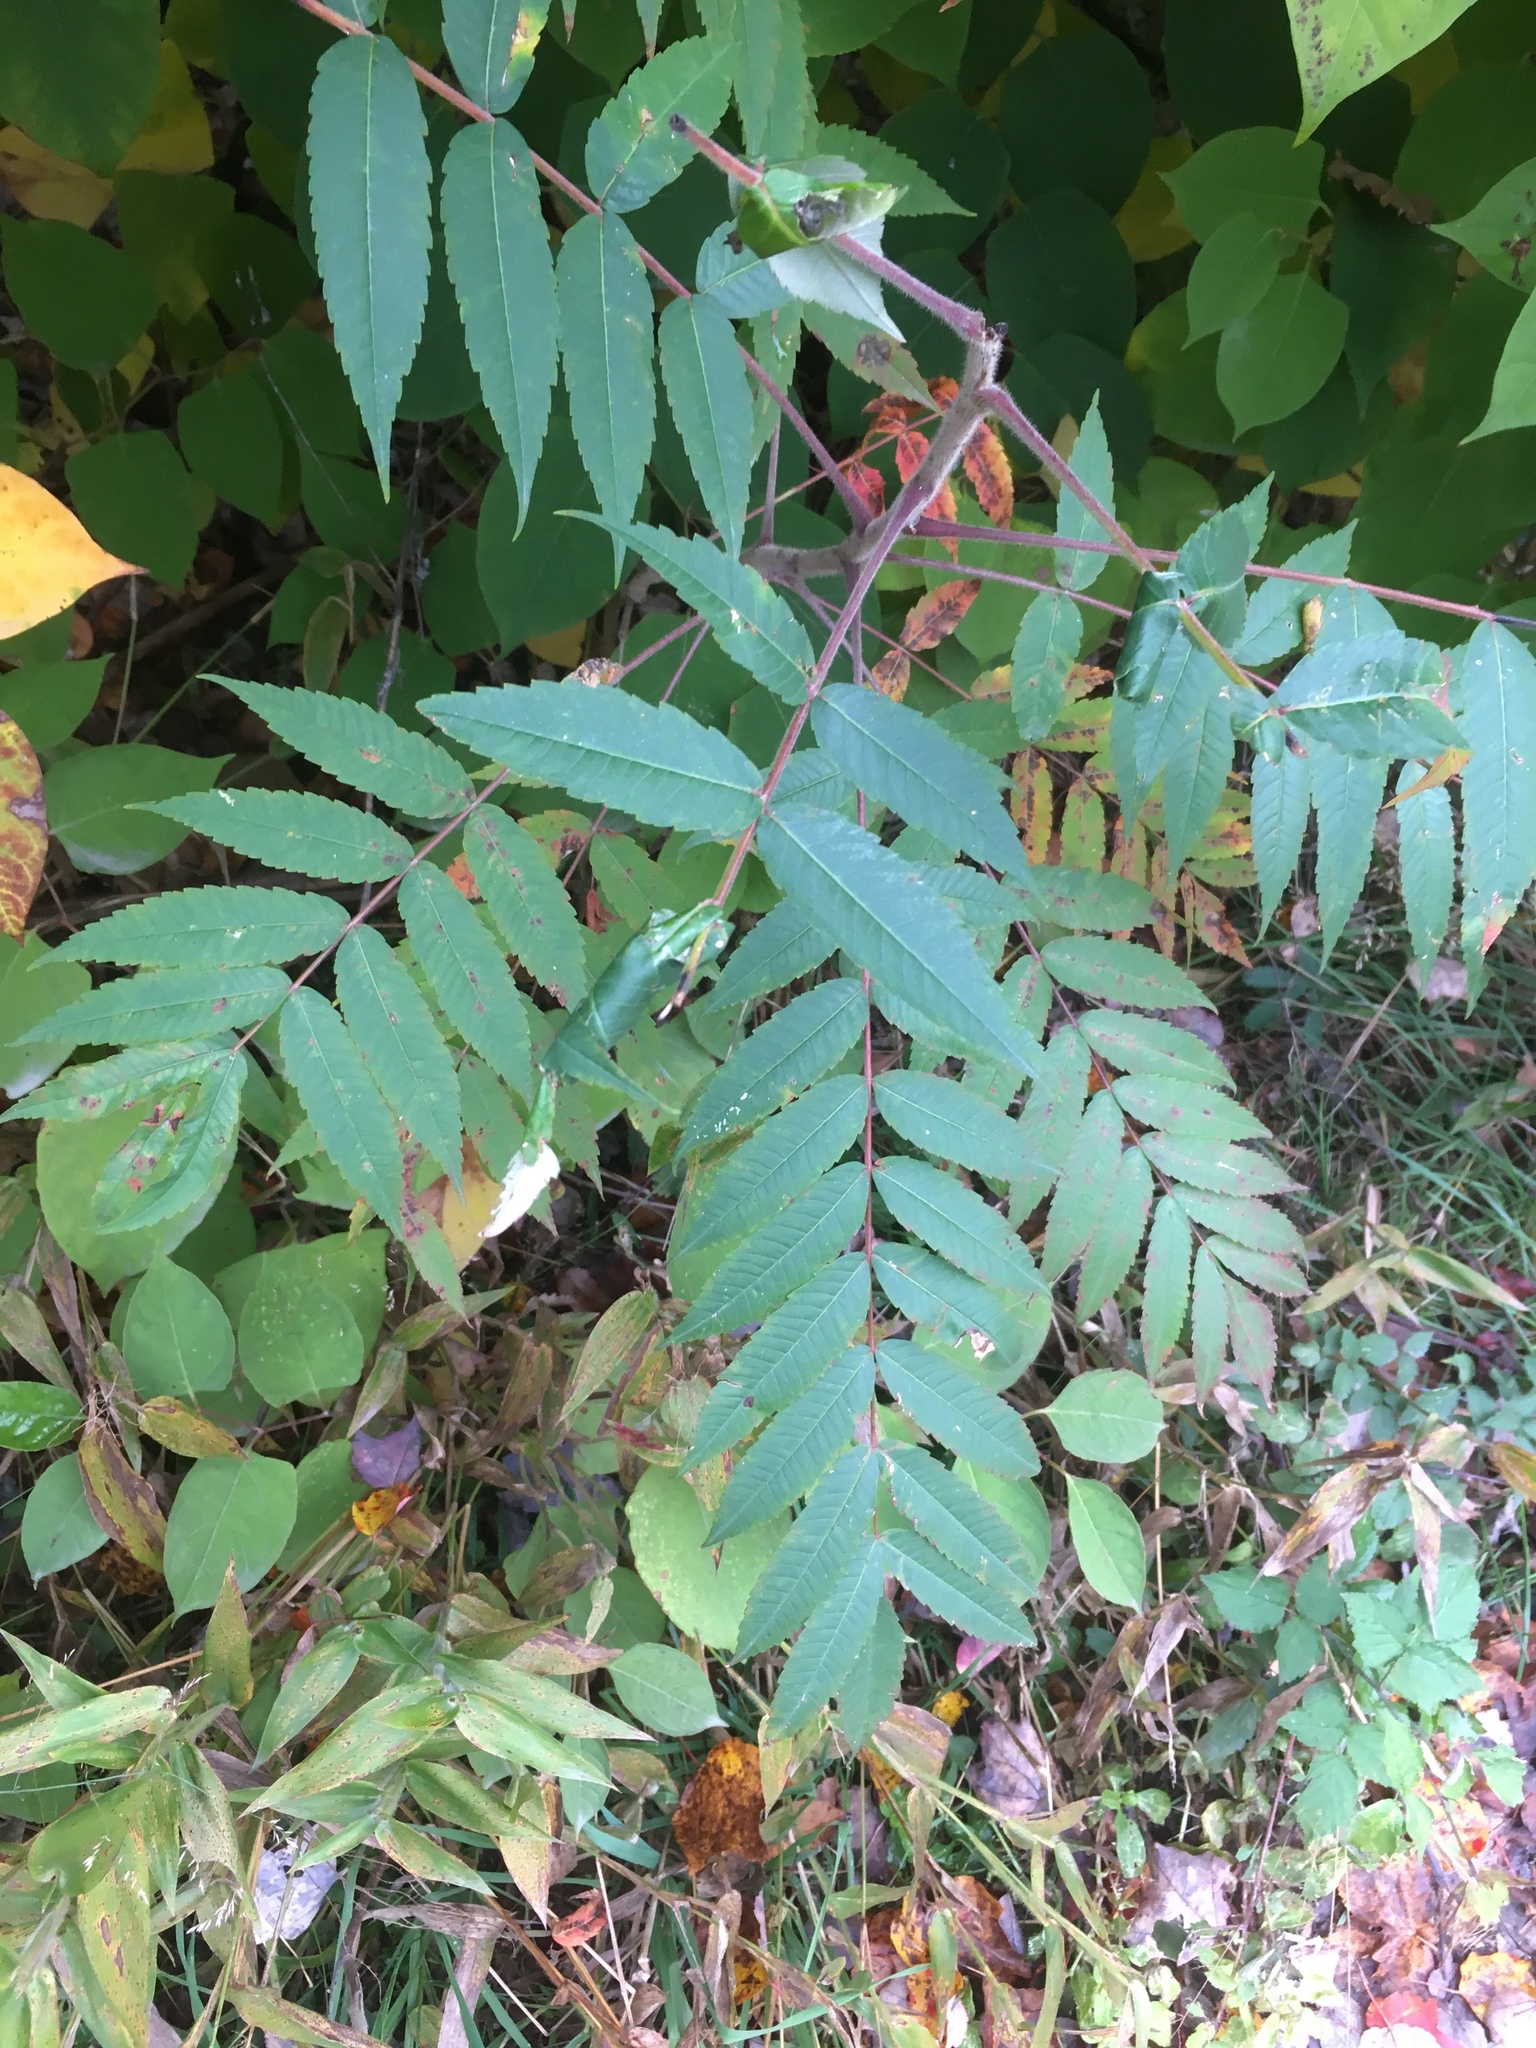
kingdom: Plantae
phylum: Tracheophyta
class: Magnoliopsida
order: Sapindales
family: Anacardiaceae
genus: Rhus
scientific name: Rhus typhina
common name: Staghorn sumac
